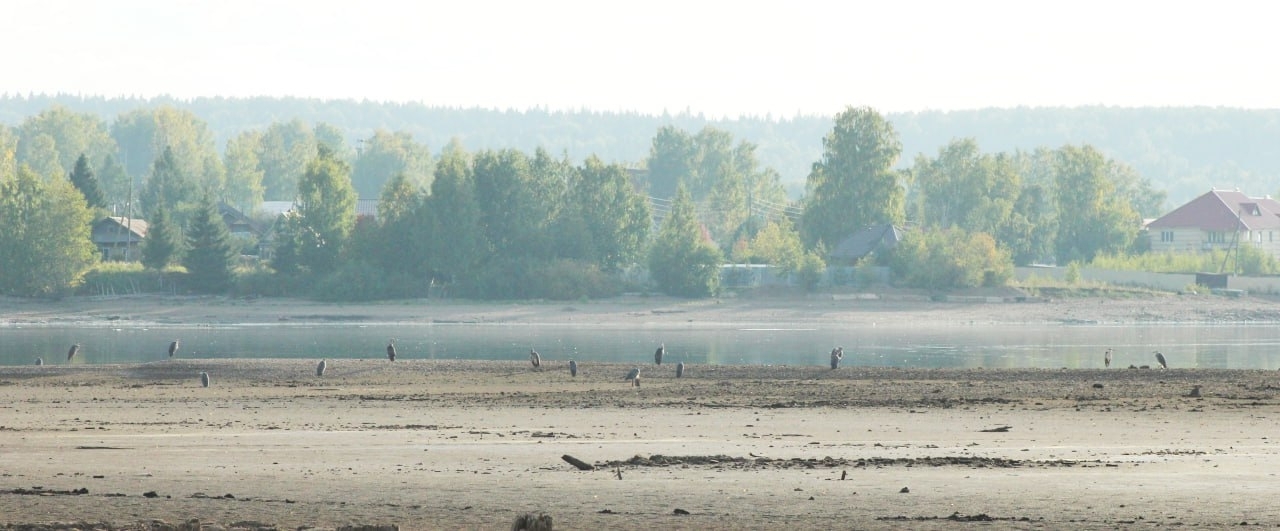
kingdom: Animalia
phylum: Chordata
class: Aves
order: Pelecaniformes
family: Ardeidae
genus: Ardea
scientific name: Ardea cinerea
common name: Grey heron
